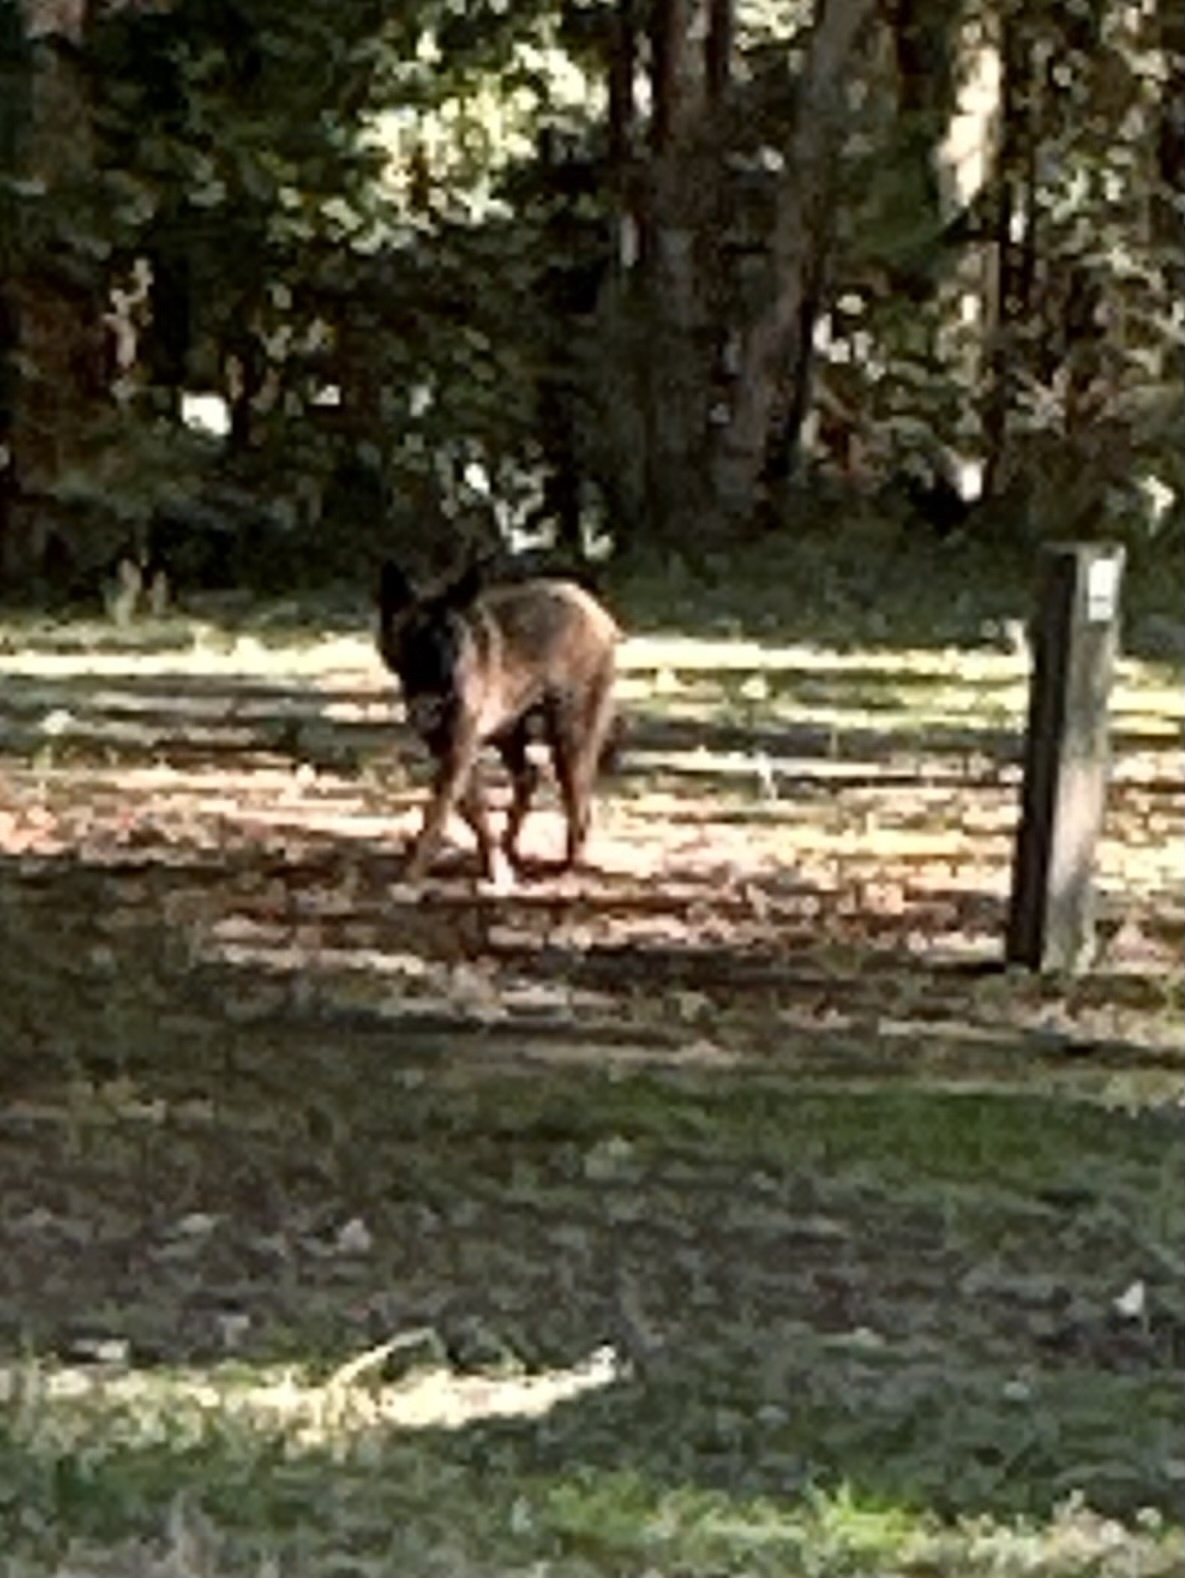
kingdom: Animalia
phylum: Chordata
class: Mammalia
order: Carnivora
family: Canidae
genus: Canis
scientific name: Canis lupus
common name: Gray wolf
